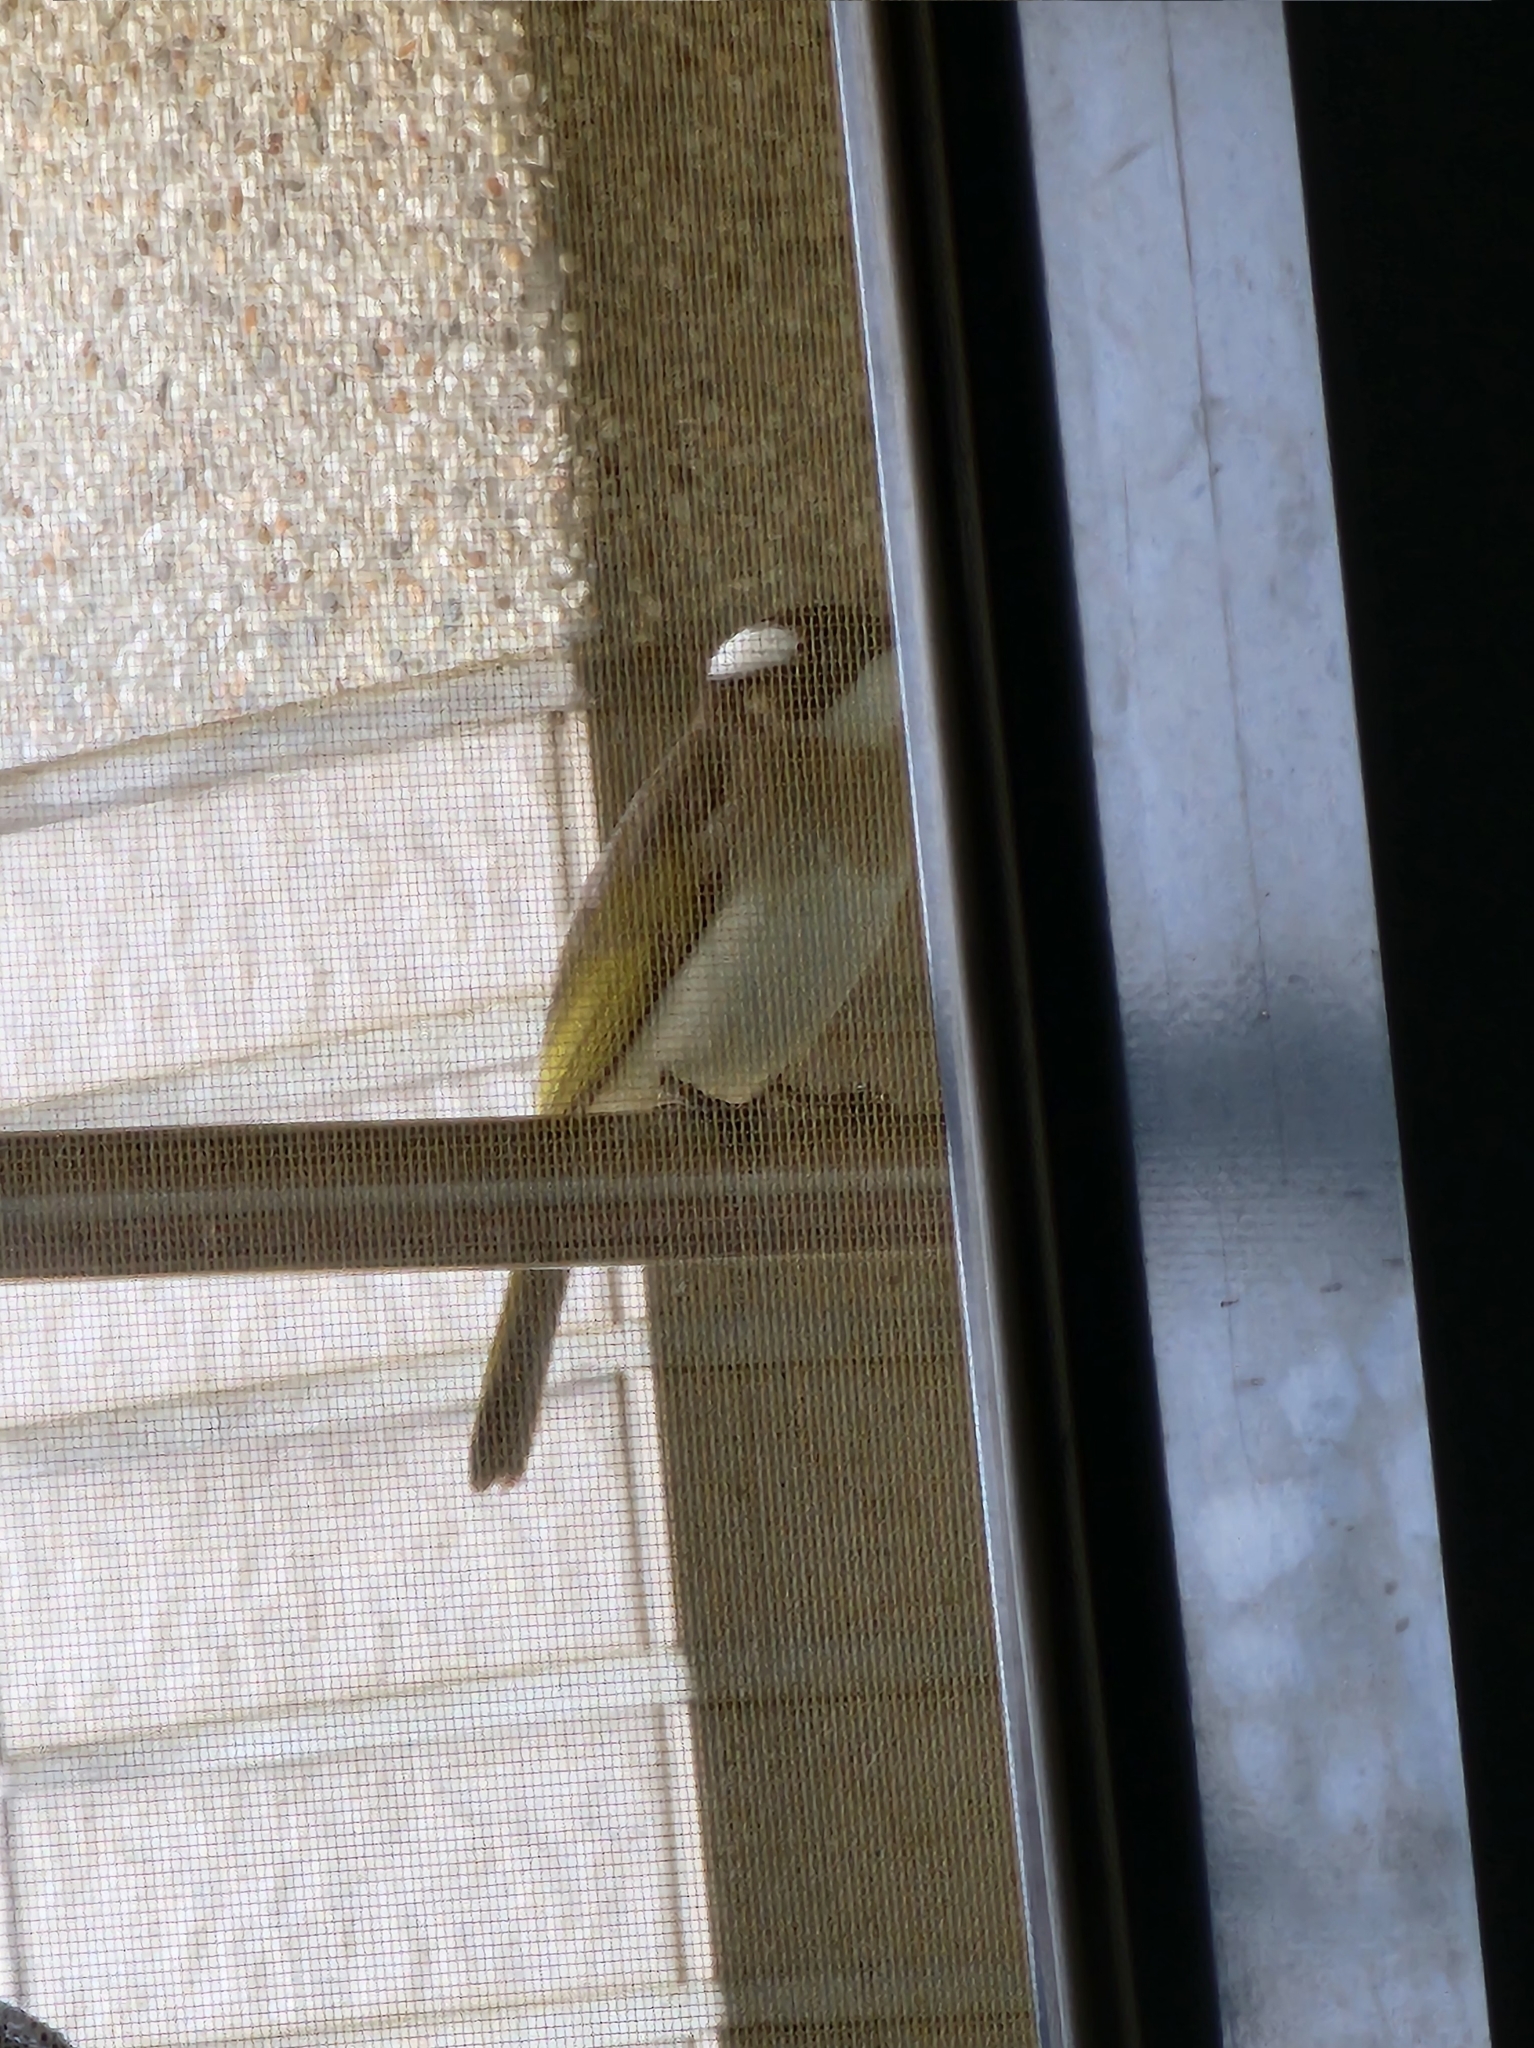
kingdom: Animalia
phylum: Chordata
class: Aves
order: Passeriformes
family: Pycnonotidae
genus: Pycnonotus
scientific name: Pycnonotus sinensis
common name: Light-vented bulbul
